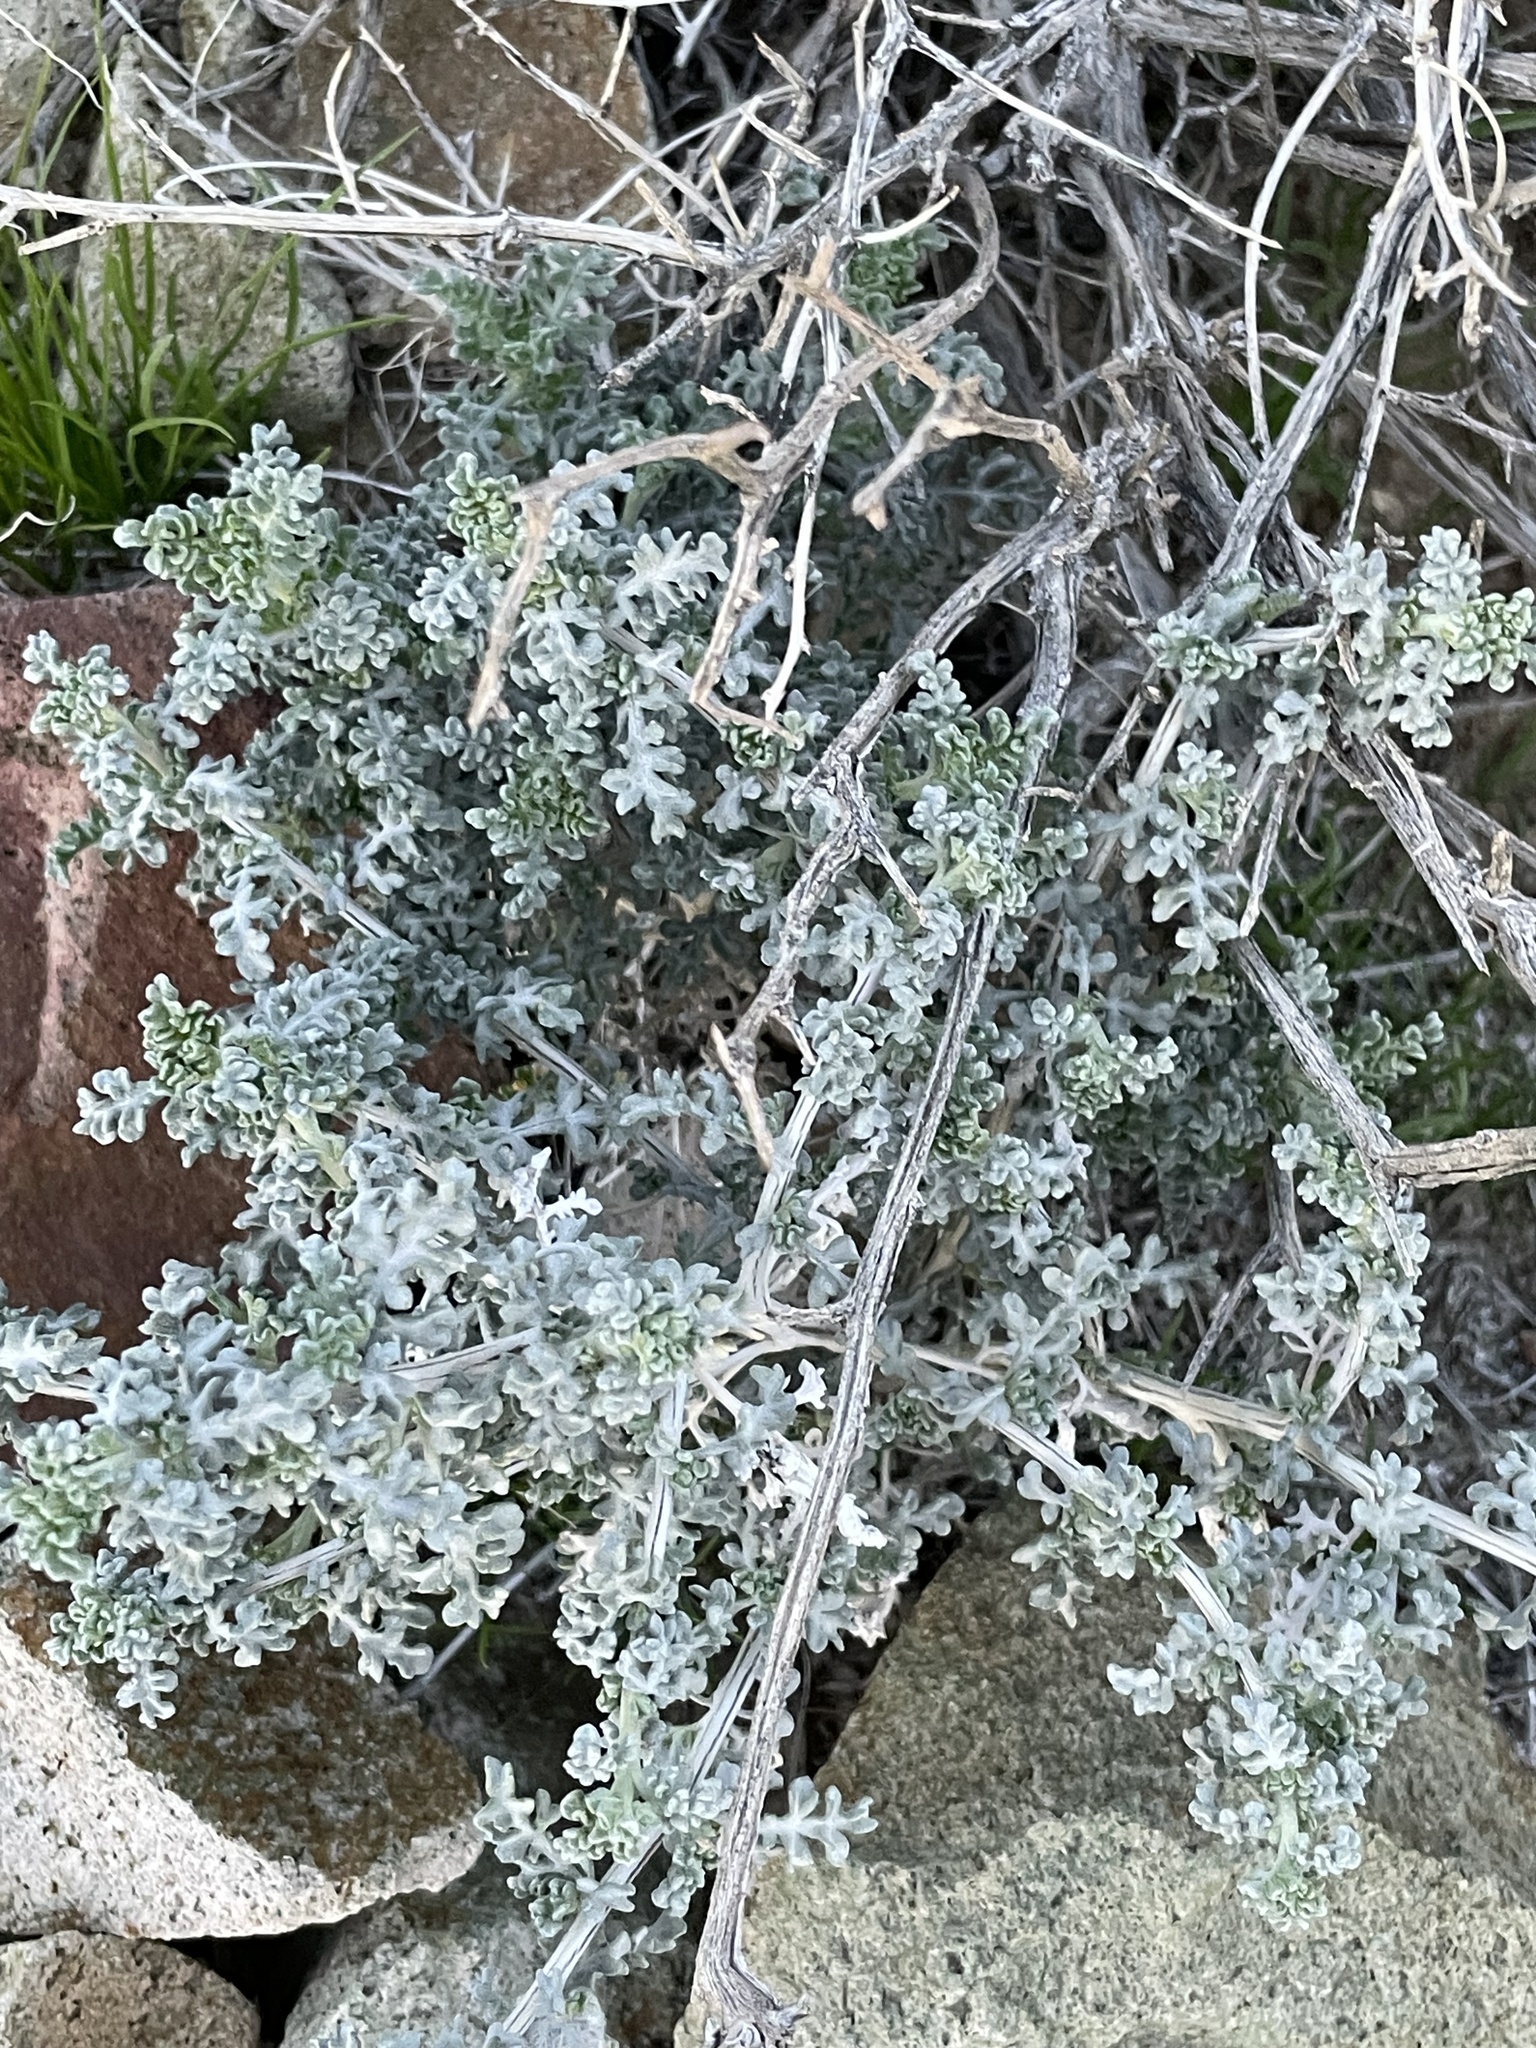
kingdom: Plantae
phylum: Tracheophyta
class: Magnoliopsida
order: Asterales
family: Asteraceae
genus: Ambrosia
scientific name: Ambrosia dumosa
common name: Bur-sage
